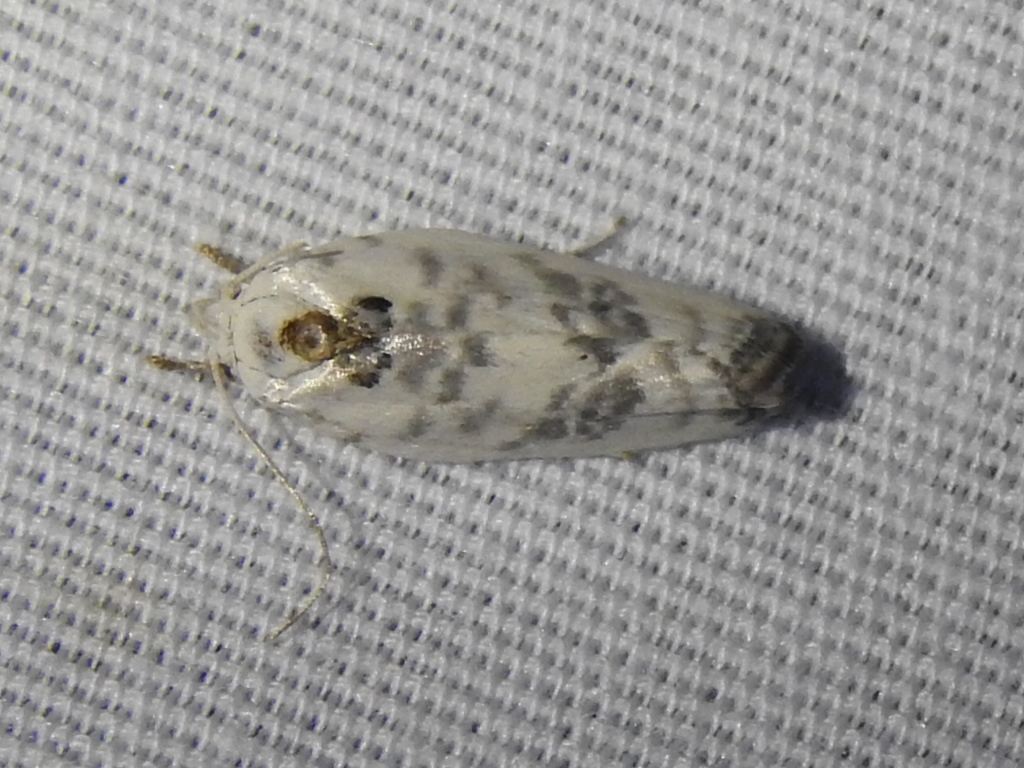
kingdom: Animalia
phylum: Arthropoda
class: Insecta
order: Lepidoptera
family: Depressariidae
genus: Antaeotricha
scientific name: Antaeotricha leucillana
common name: Pale gray bird-dropping moth
